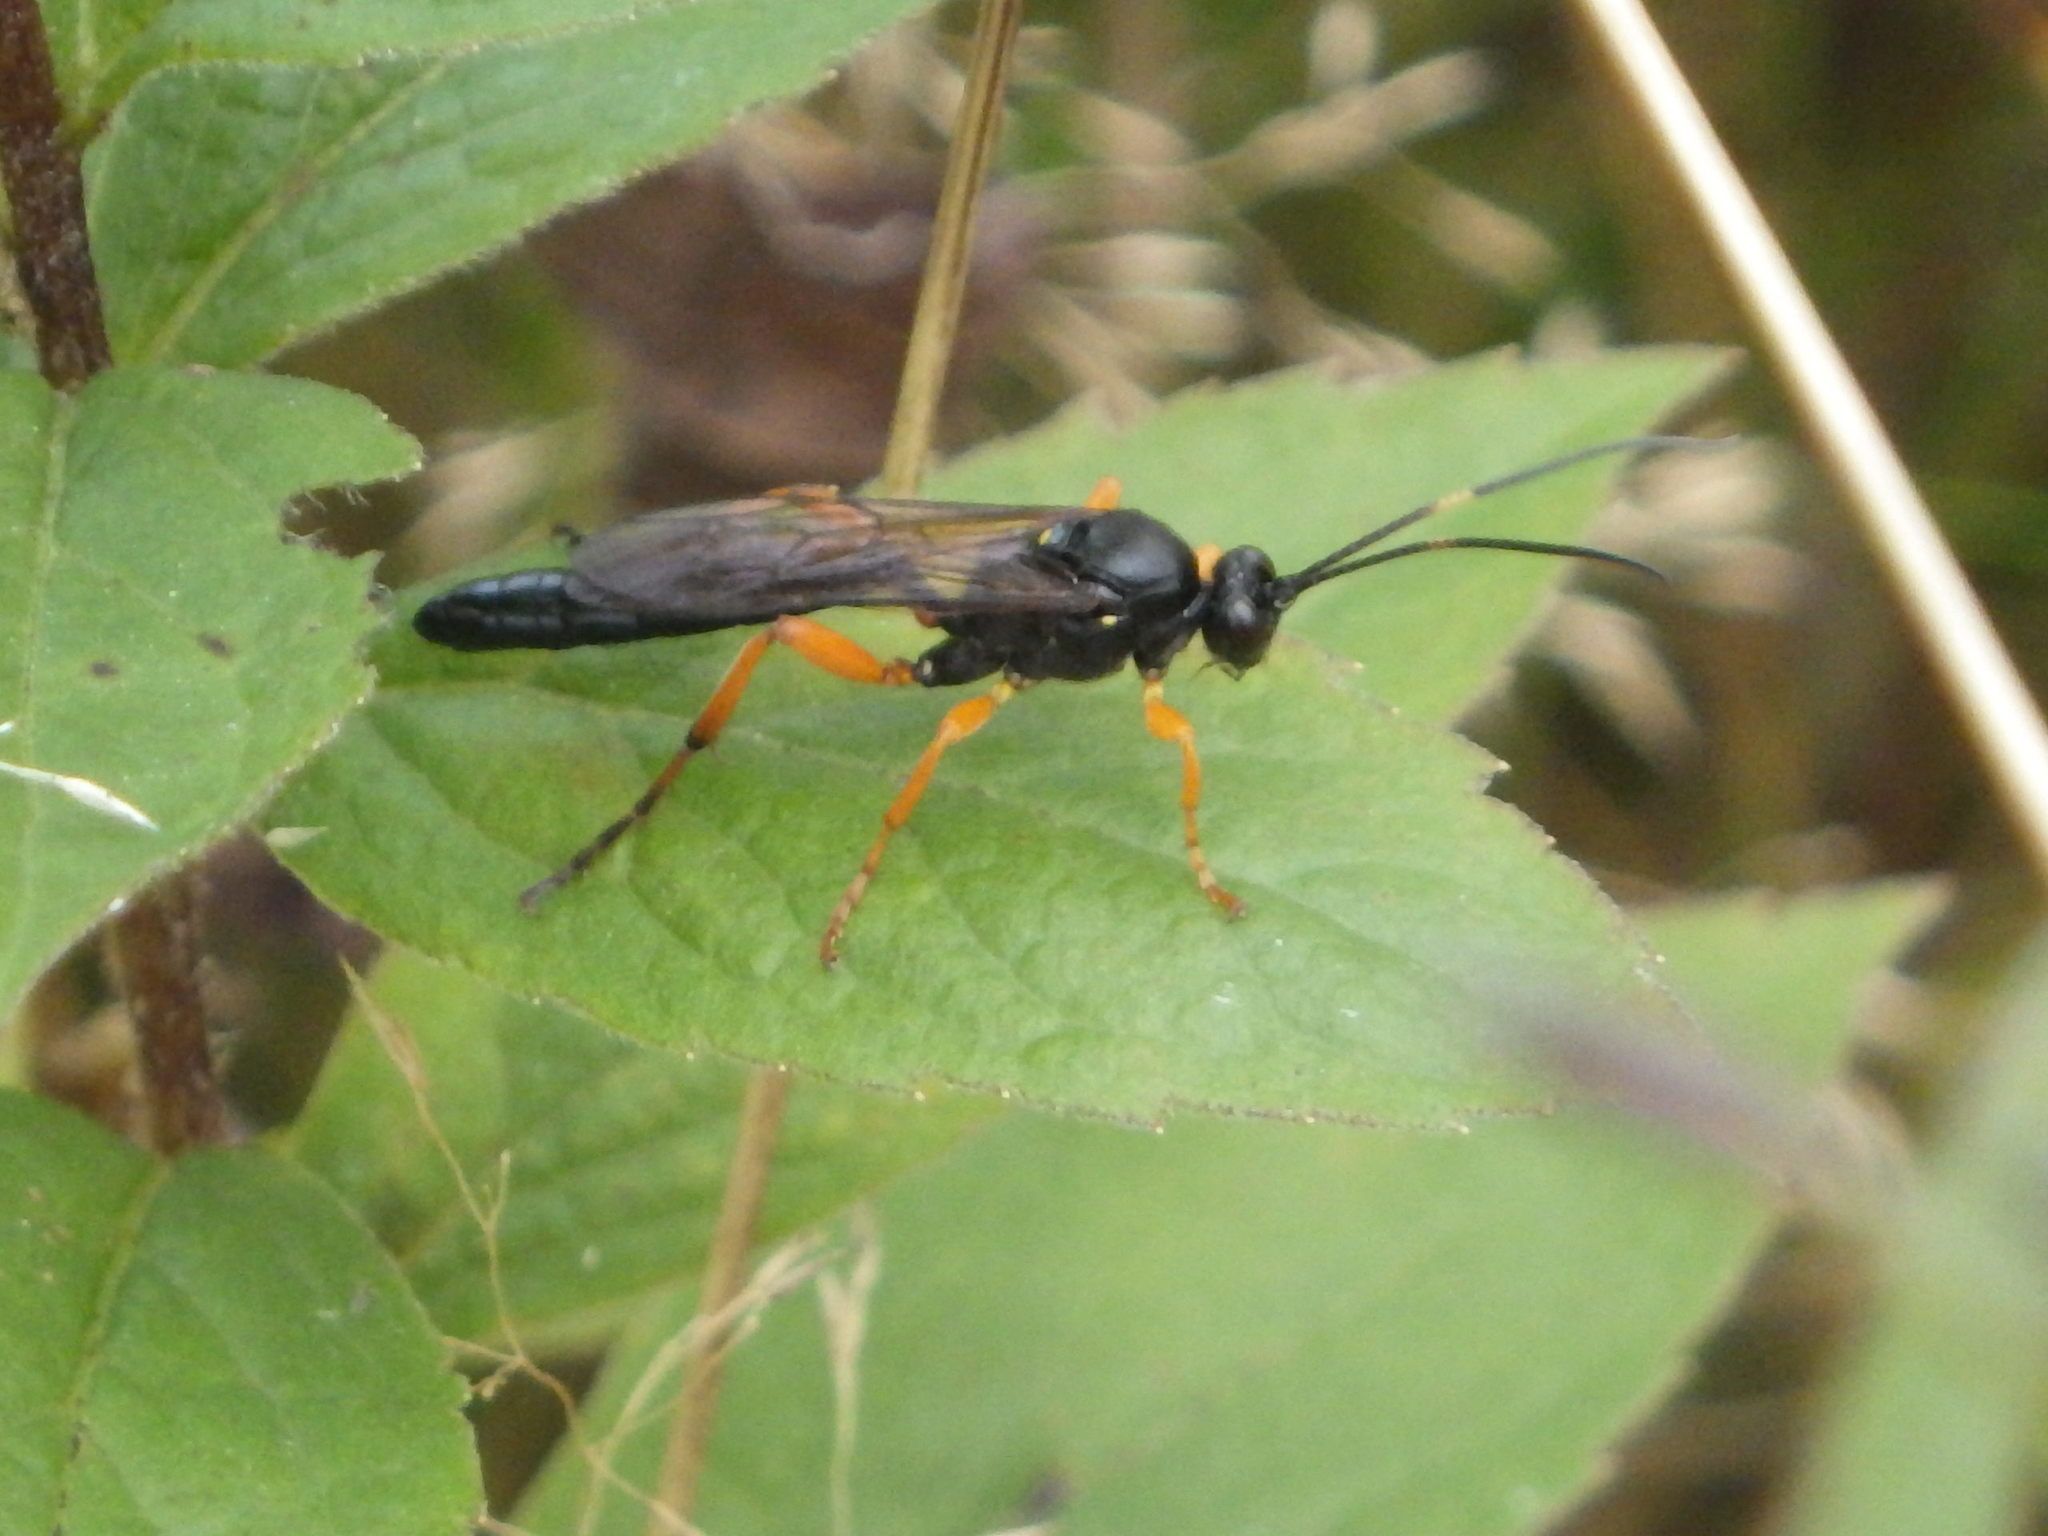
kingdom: Animalia
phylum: Arthropoda
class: Insecta
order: Hymenoptera
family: Ichneumonidae
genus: Limerodops
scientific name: Limerodops belangeri
